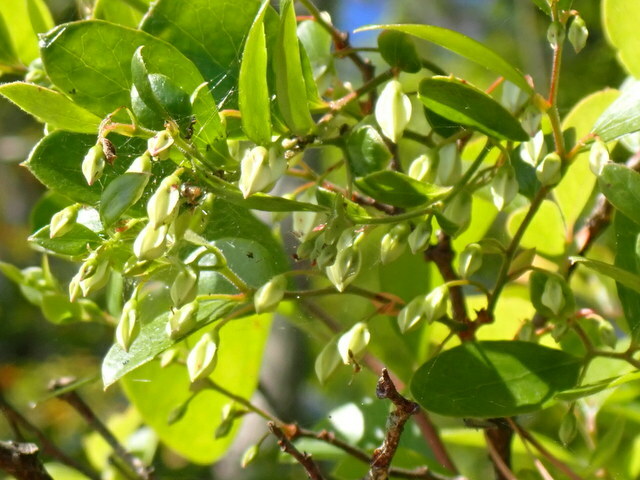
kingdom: Plantae
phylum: Tracheophyta
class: Magnoliopsida
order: Ericales
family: Ericaceae
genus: Vaccinium
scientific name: Vaccinium arboreum
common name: Farkleberry
